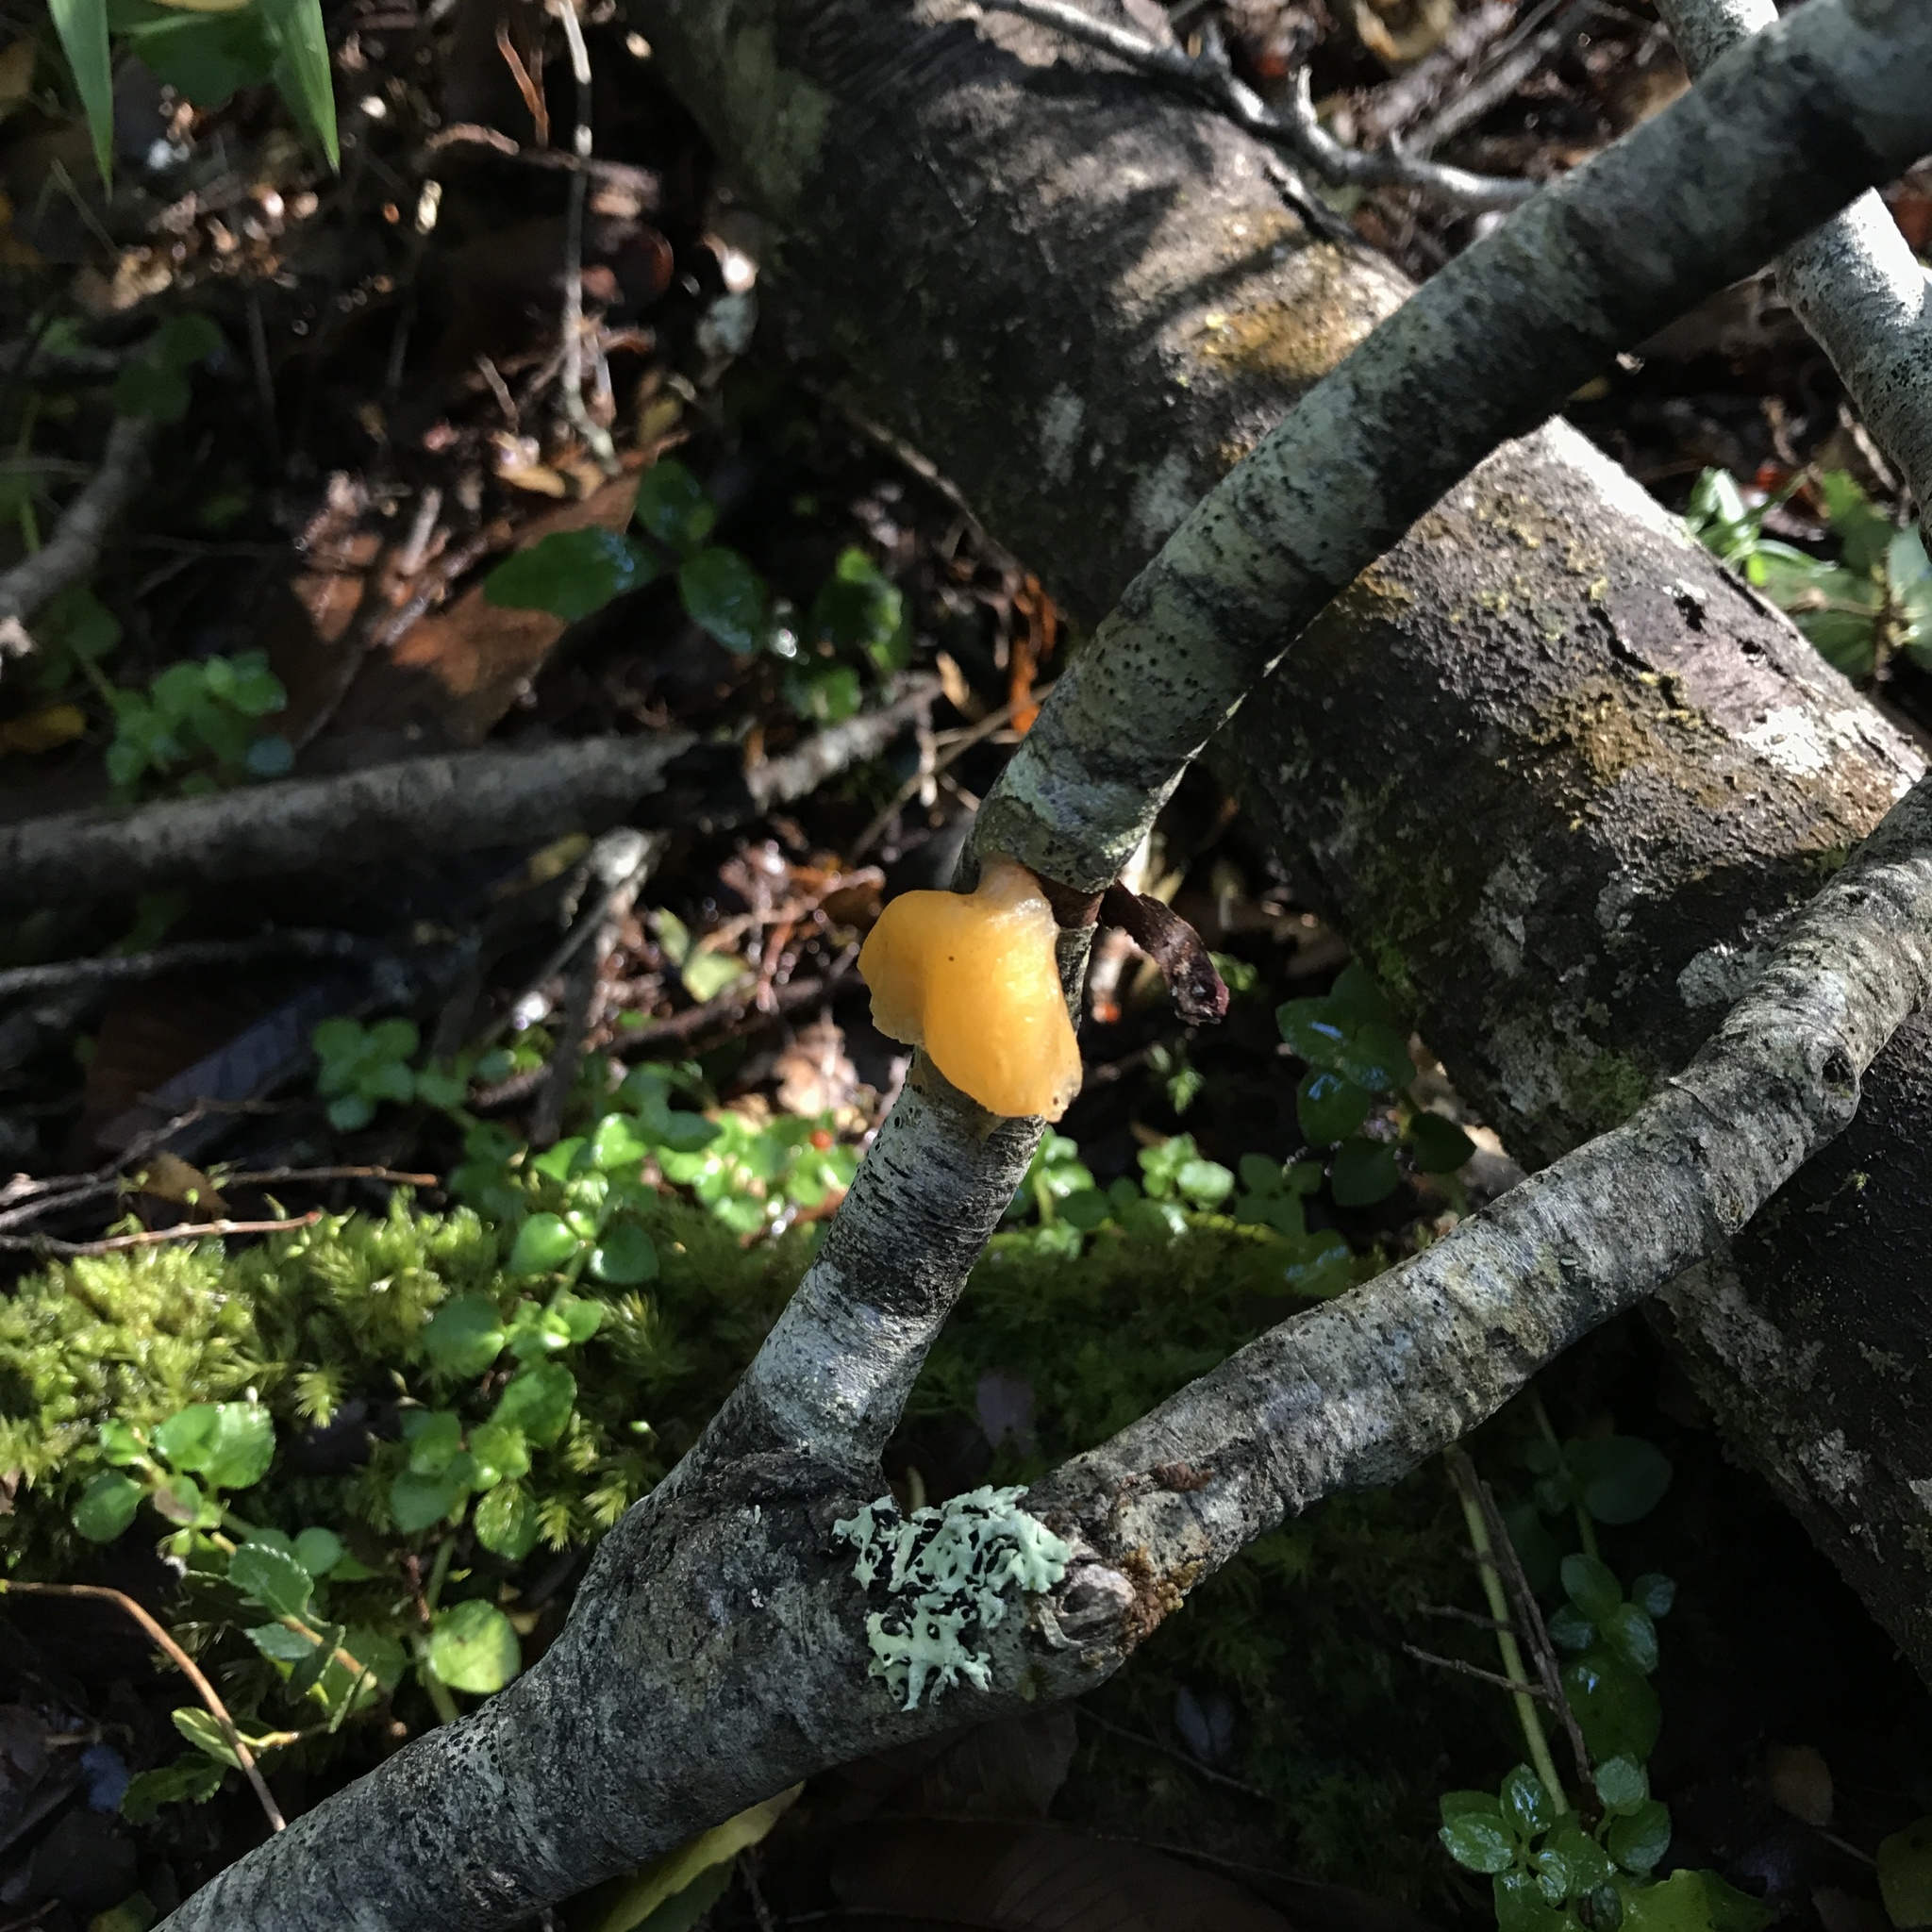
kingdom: Fungi
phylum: Basidiomycota
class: Agaricomycetes
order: Russulales
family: Stereaceae
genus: Aleurodiscus
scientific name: Aleurodiscus vitellinus
